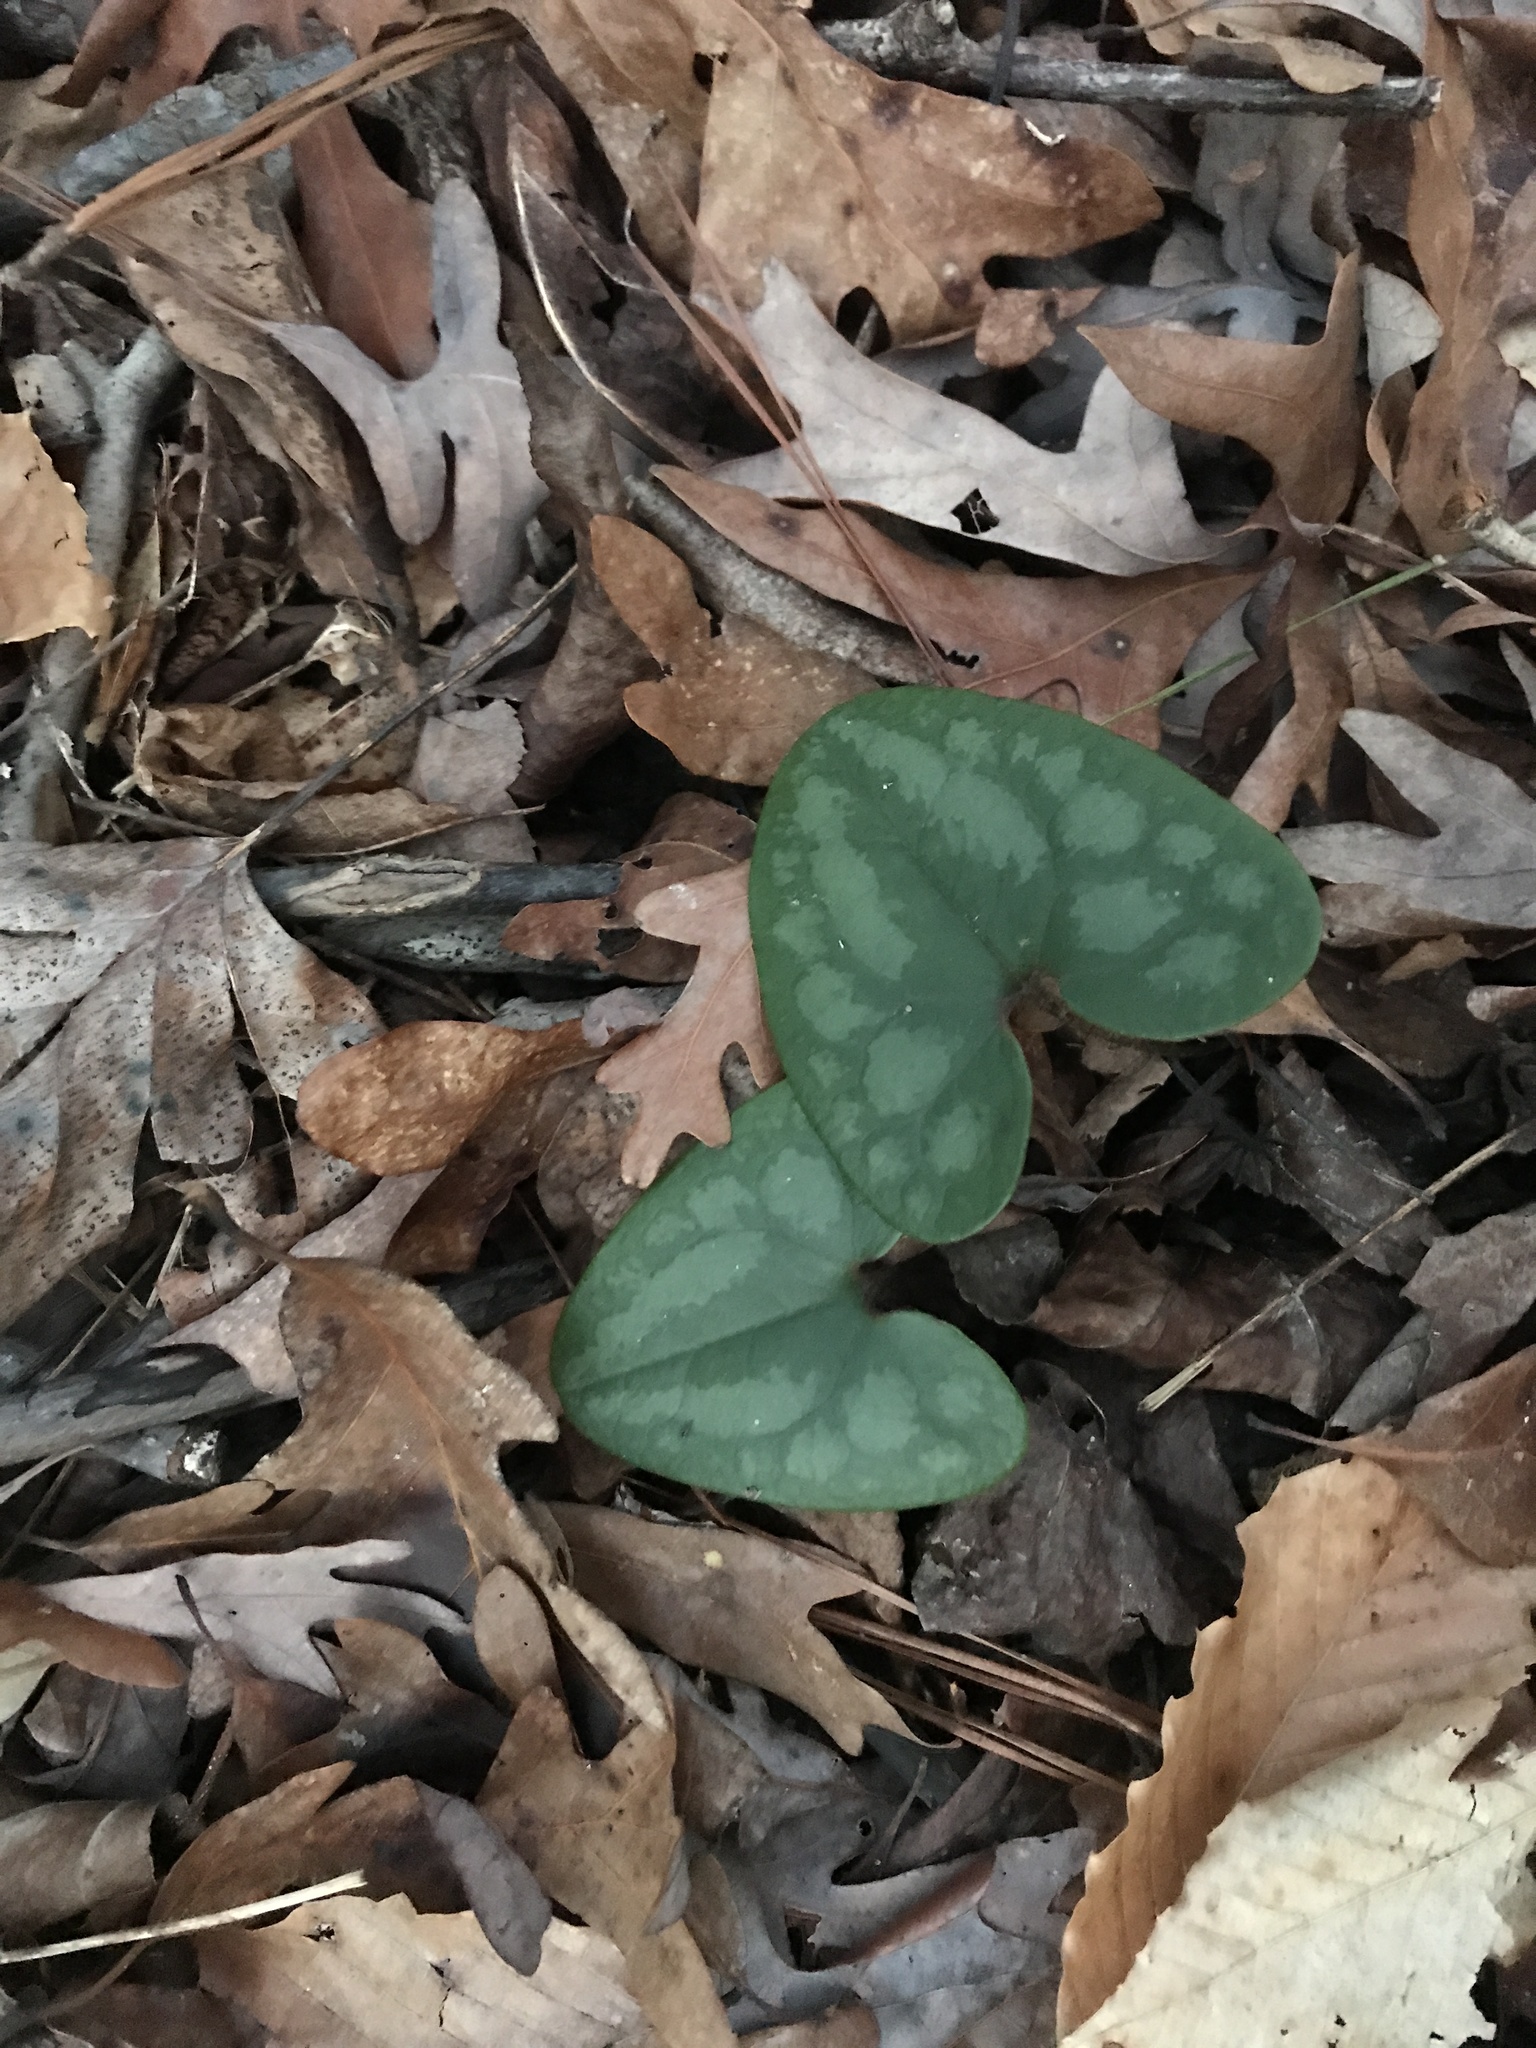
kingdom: Plantae
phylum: Tracheophyta
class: Magnoliopsida
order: Piperales
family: Aristolochiaceae
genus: Hexastylis
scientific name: Hexastylis arifolia
